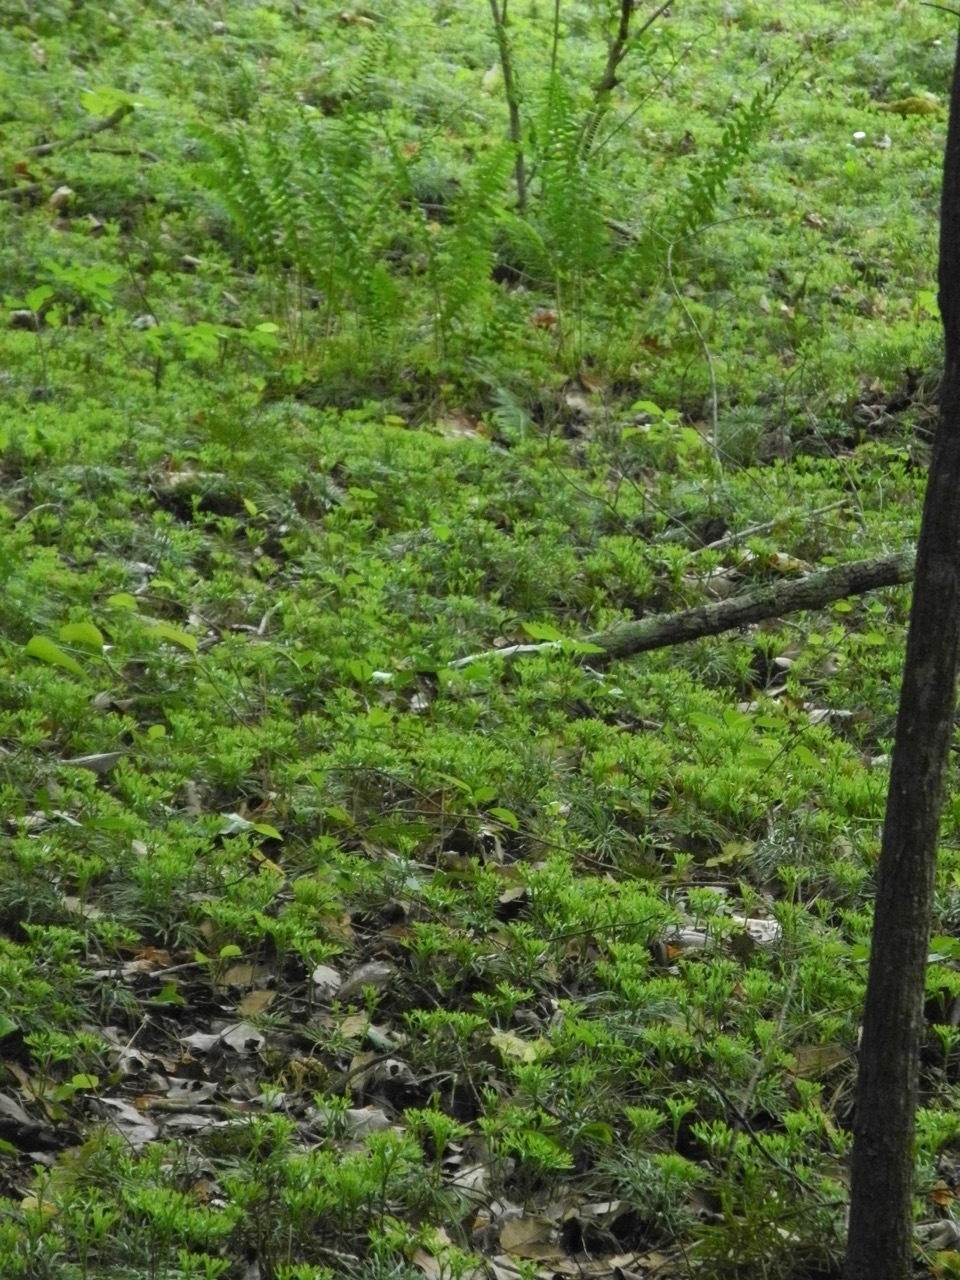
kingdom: Plantae
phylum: Tracheophyta
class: Lycopodiopsida
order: Lycopodiales
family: Lycopodiaceae
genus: Diphasiastrum
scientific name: Diphasiastrum digitatum
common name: Southern running-pine
